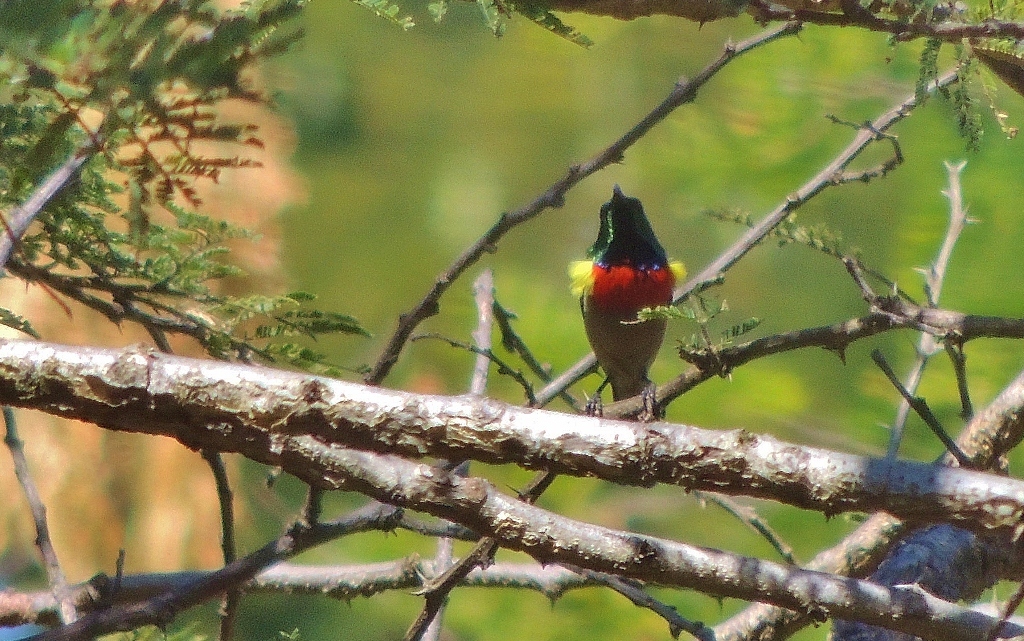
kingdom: Animalia
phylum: Chordata
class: Aves
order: Passeriformes
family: Nectariniidae
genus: Cinnyris
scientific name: Cinnyris manoensis
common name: Eastern miombo sunbird
